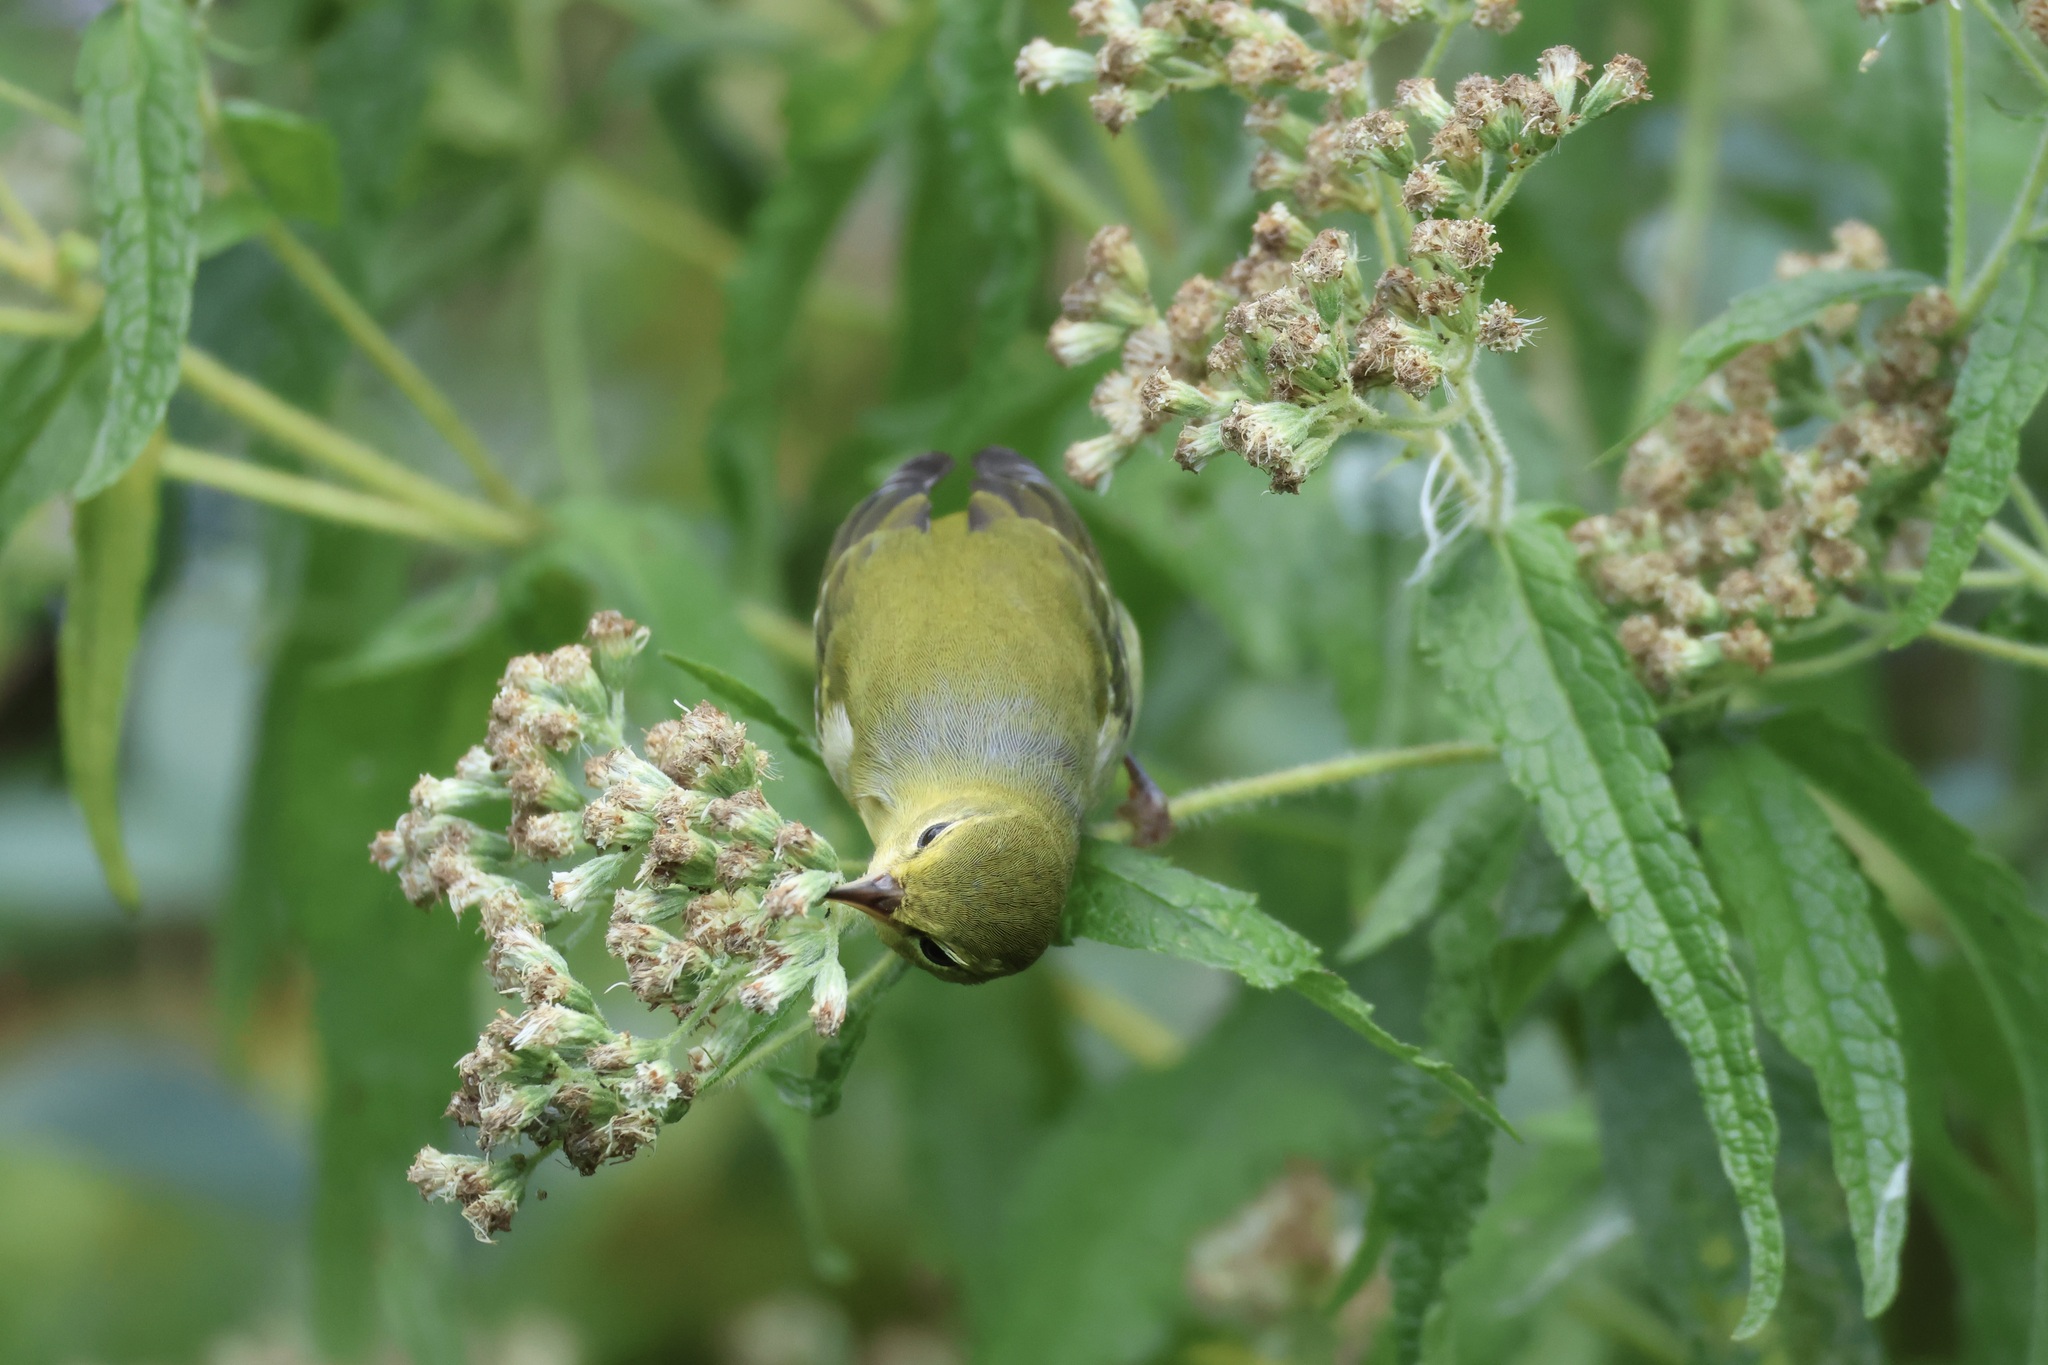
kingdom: Animalia
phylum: Chordata
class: Aves
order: Passeriformes
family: Parulidae
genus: Leiothlypis
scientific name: Leiothlypis peregrina
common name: Tennessee warbler
